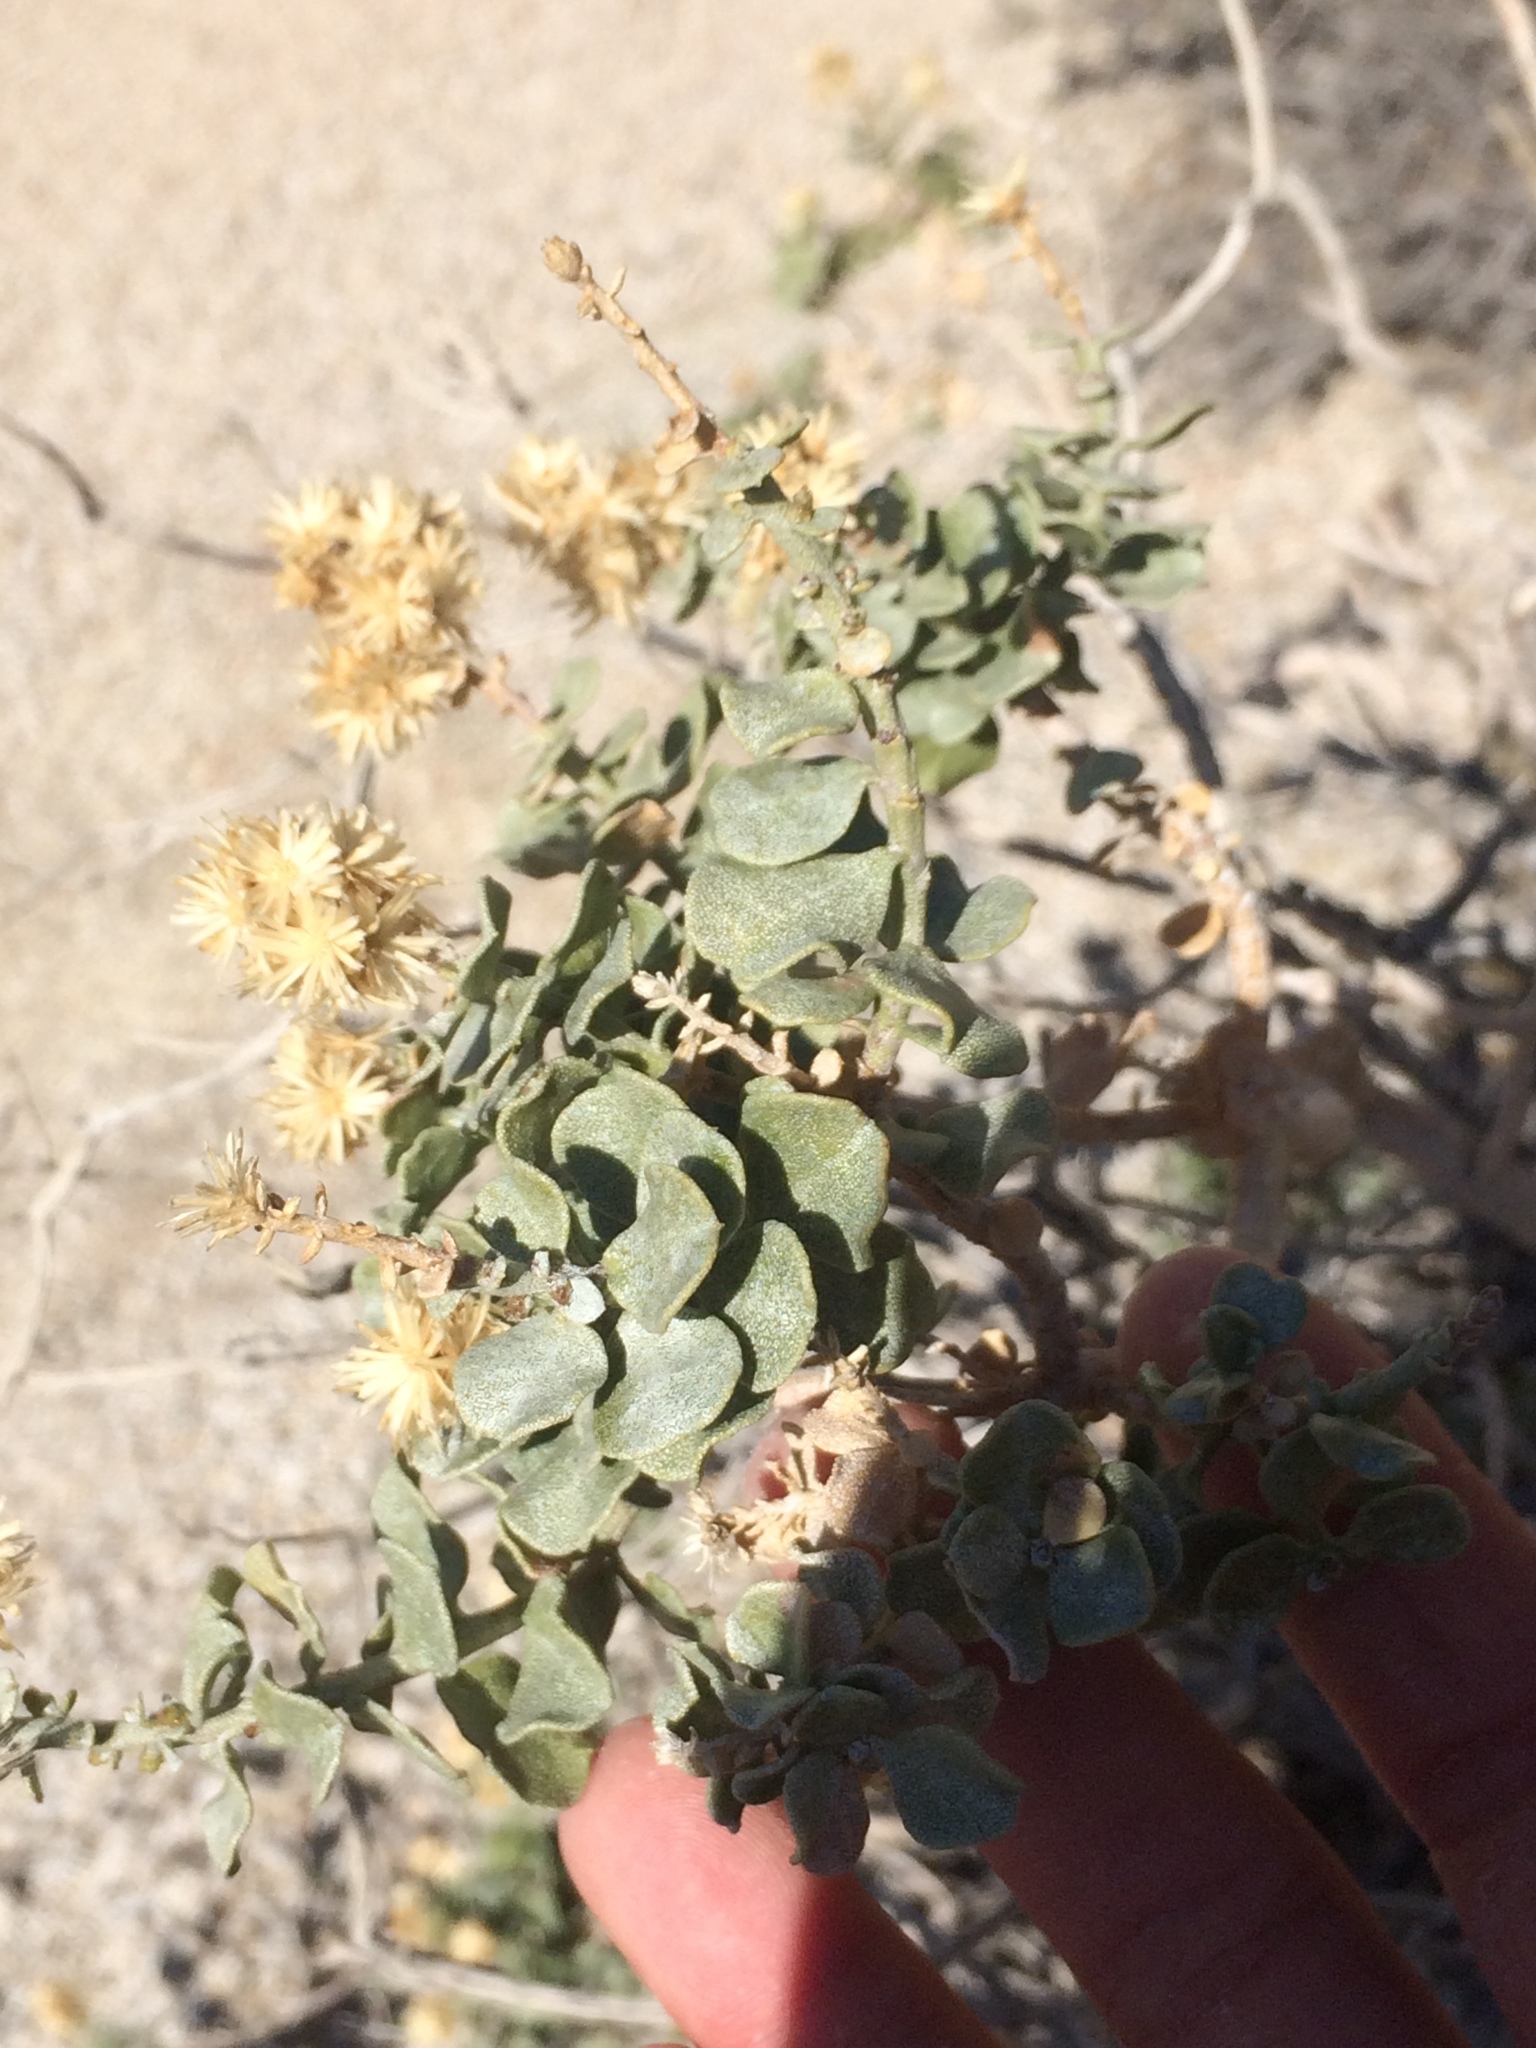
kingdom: Plantae
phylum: Tracheophyta
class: Magnoliopsida
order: Asterales
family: Asteraceae
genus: Ericameria
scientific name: Ericameria cuneata
